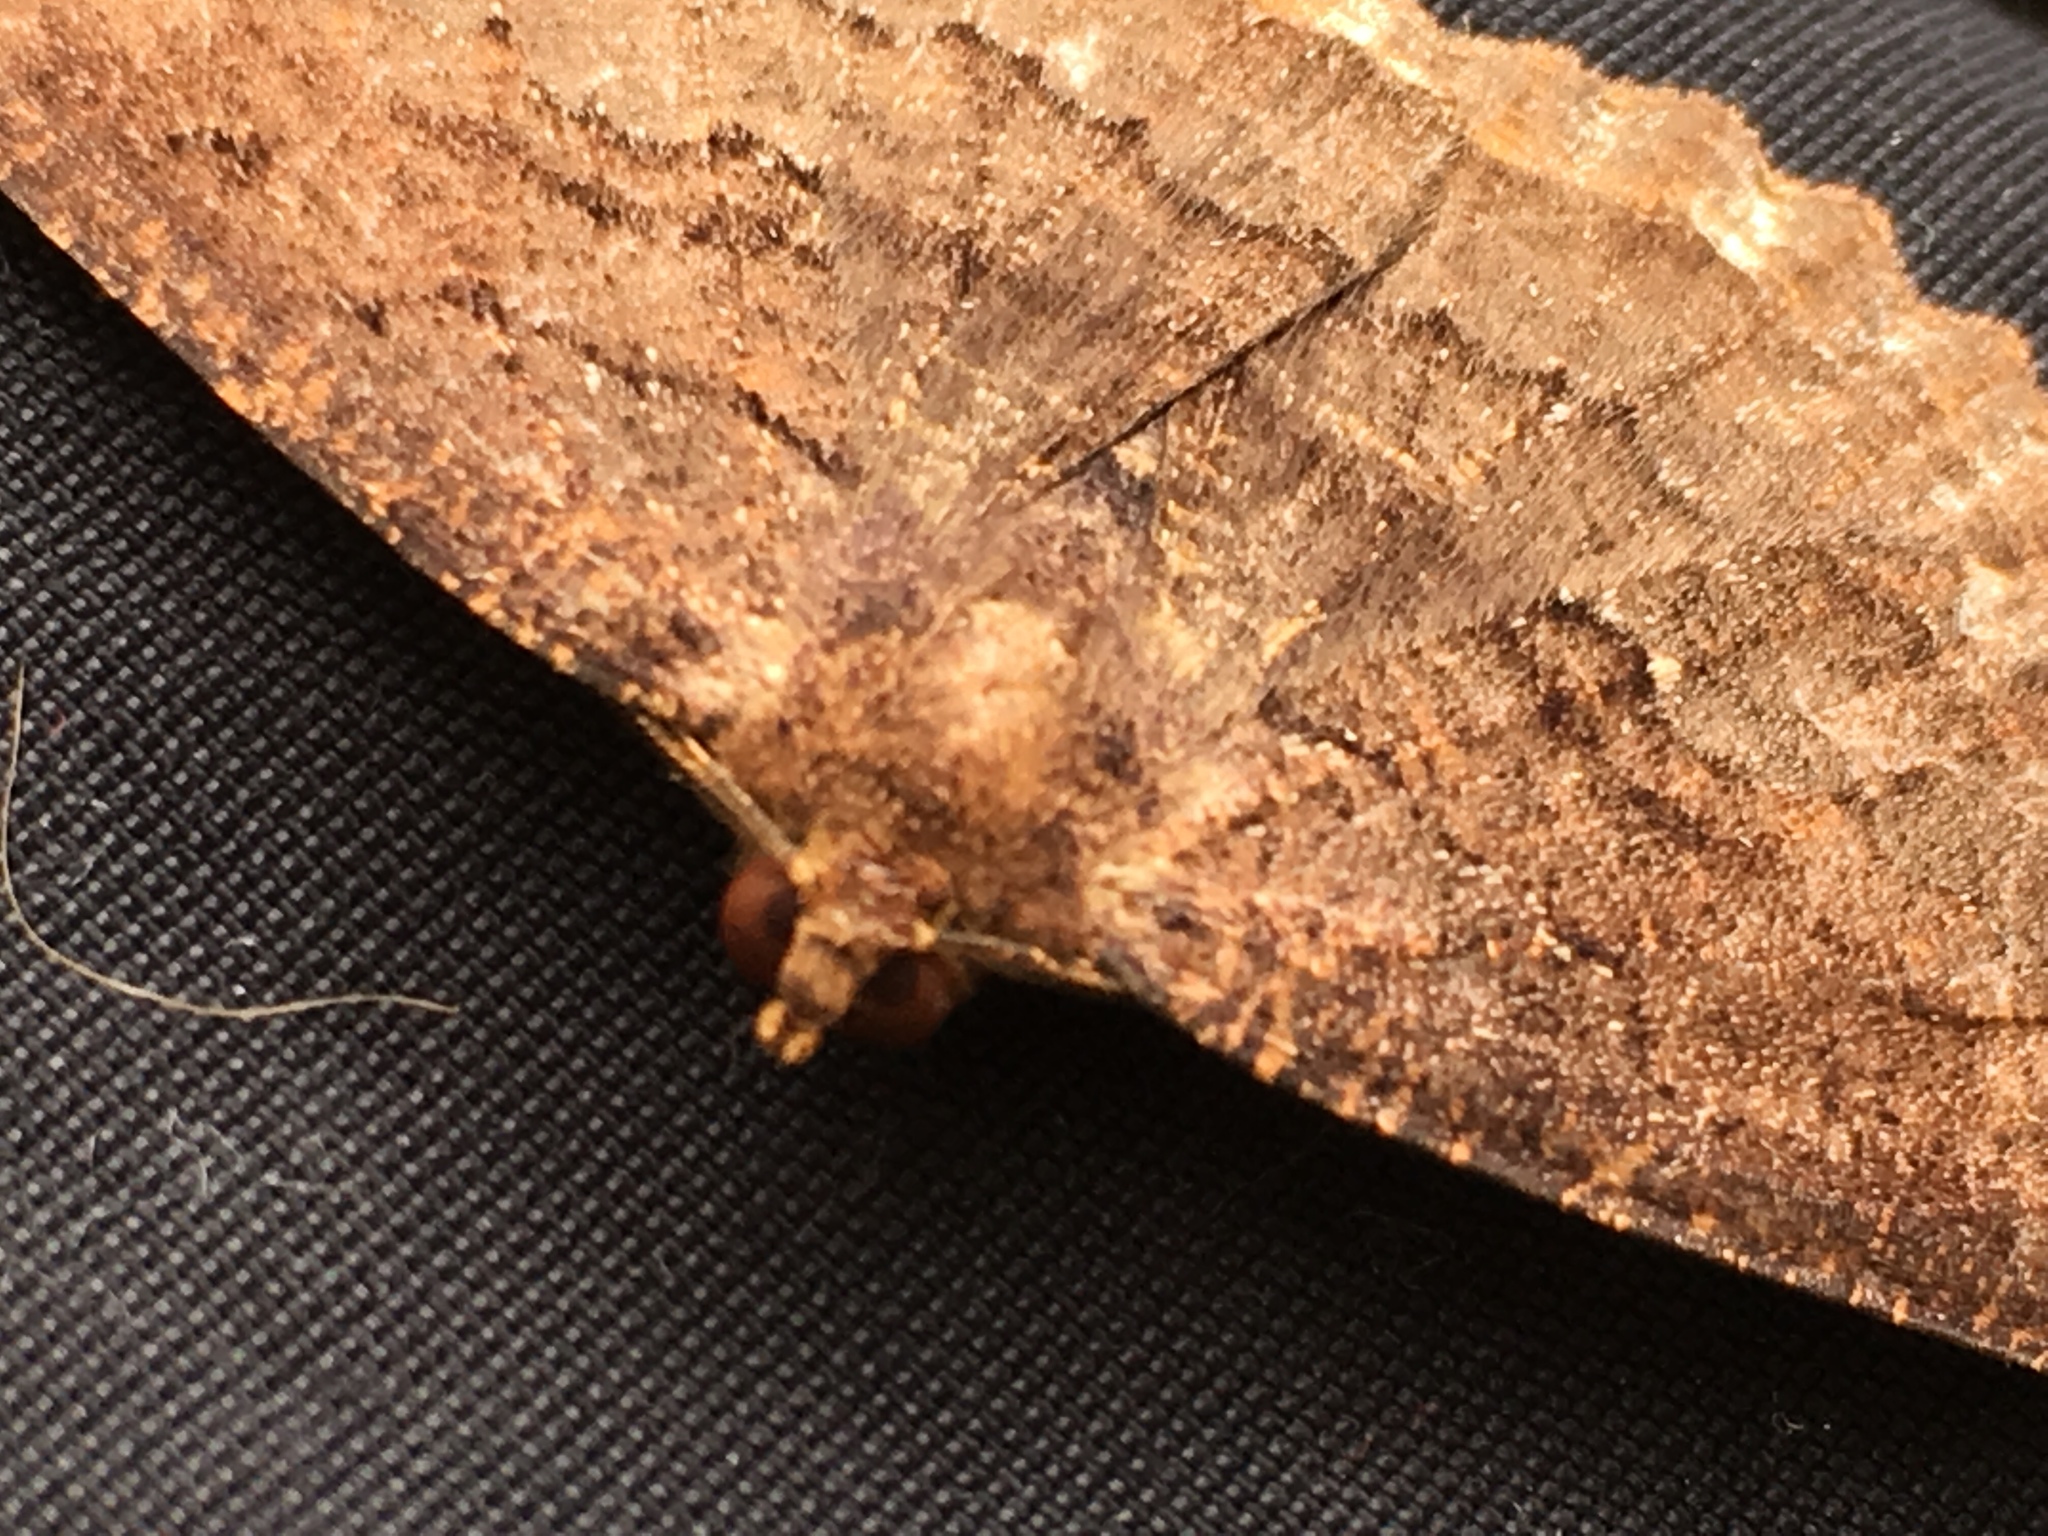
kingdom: Animalia
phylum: Arthropoda
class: Insecta
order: Lepidoptera
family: Geometridae
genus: Gellonia
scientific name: Gellonia dejectaria
